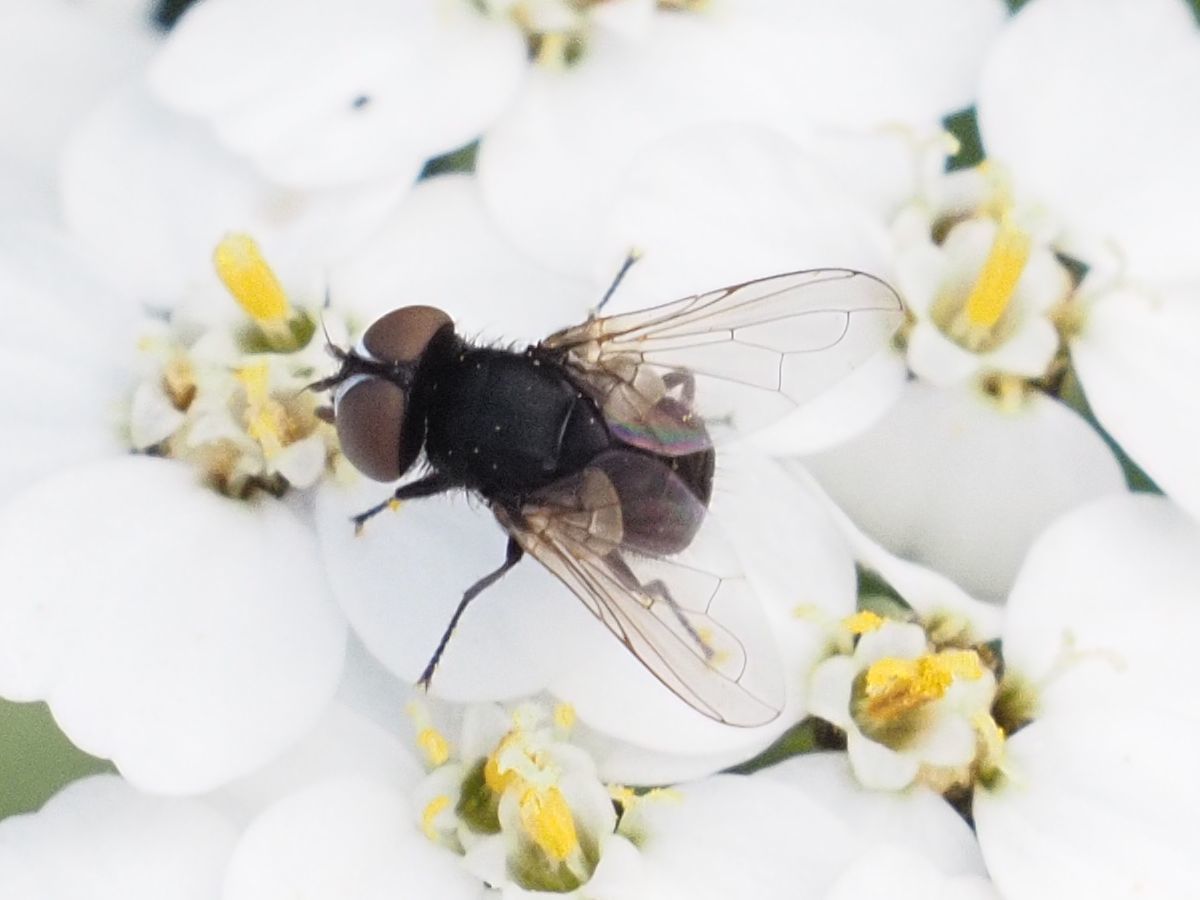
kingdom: Animalia
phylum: Arthropoda
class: Insecta
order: Diptera
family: Tachinidae
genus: Phasia
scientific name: Phasia pusilla
